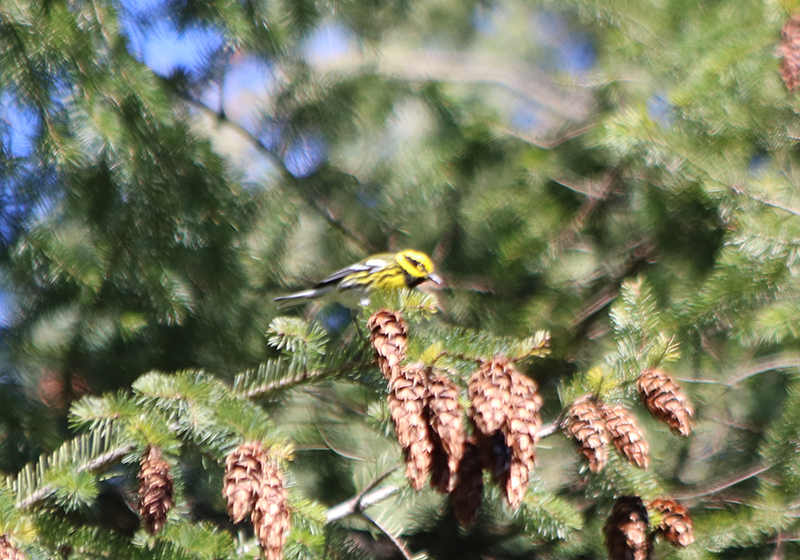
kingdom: Animalia
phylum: Chordata
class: Aves
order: Passeriformes
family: Parulidae
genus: Setophaga
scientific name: Setophaga townsendi
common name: Townsend's warbler
